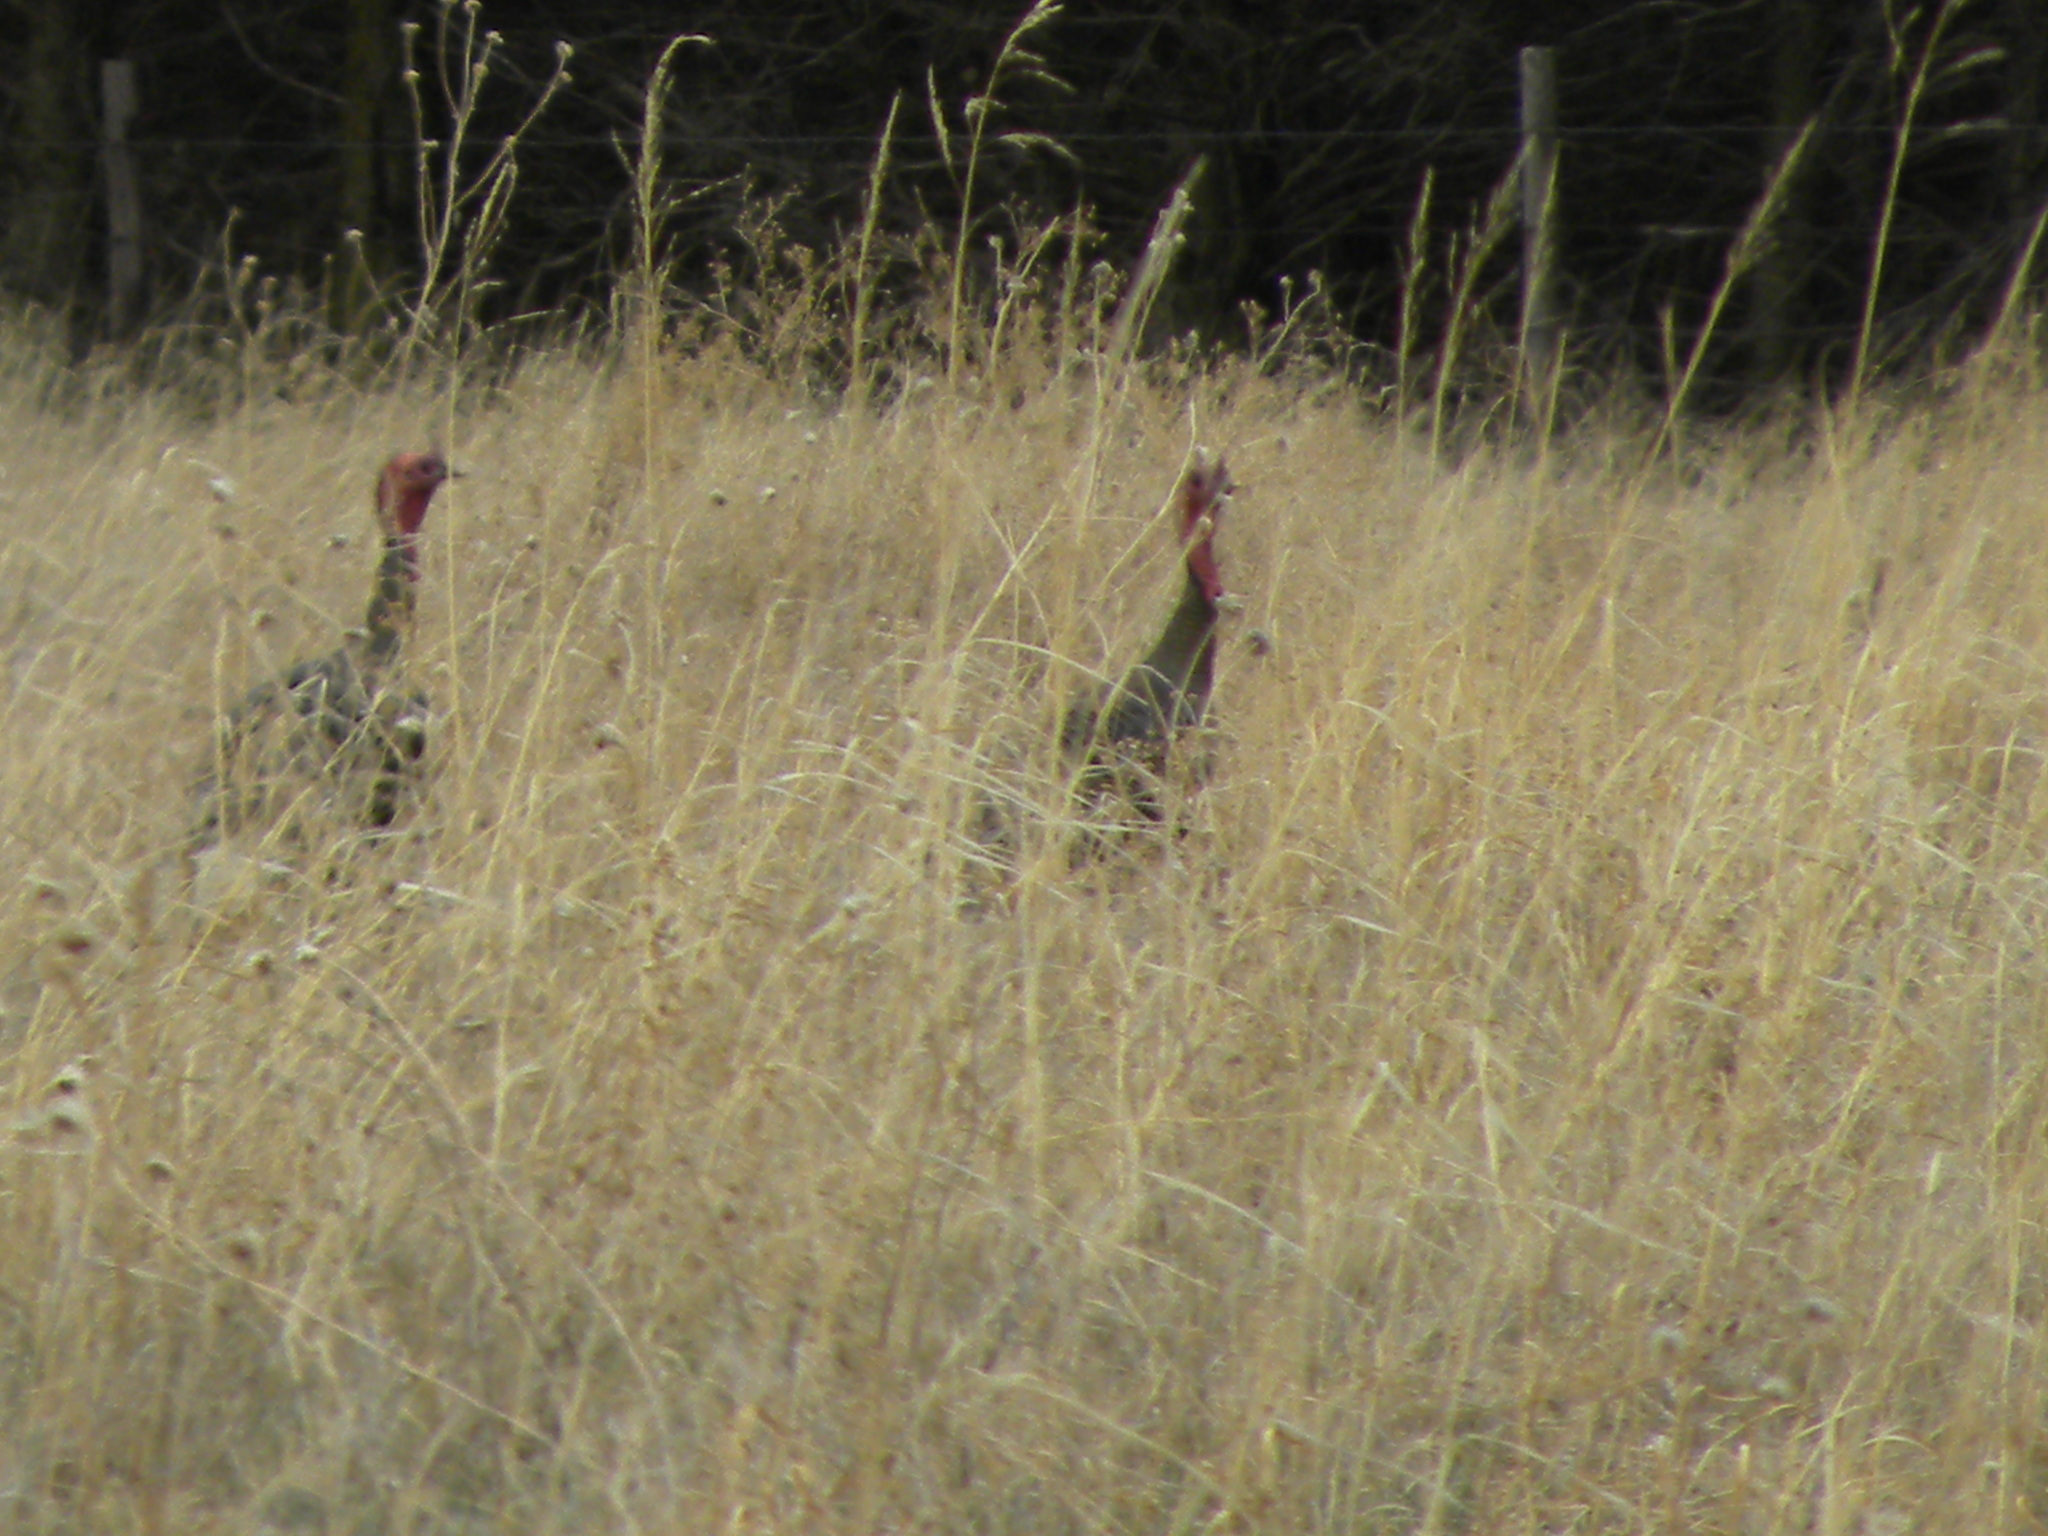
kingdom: Animalia
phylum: Chordata
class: Aves
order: Galliformes
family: Phasianidae
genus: Meleagris
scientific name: Meleagris gallopavo
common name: Wild turkey
